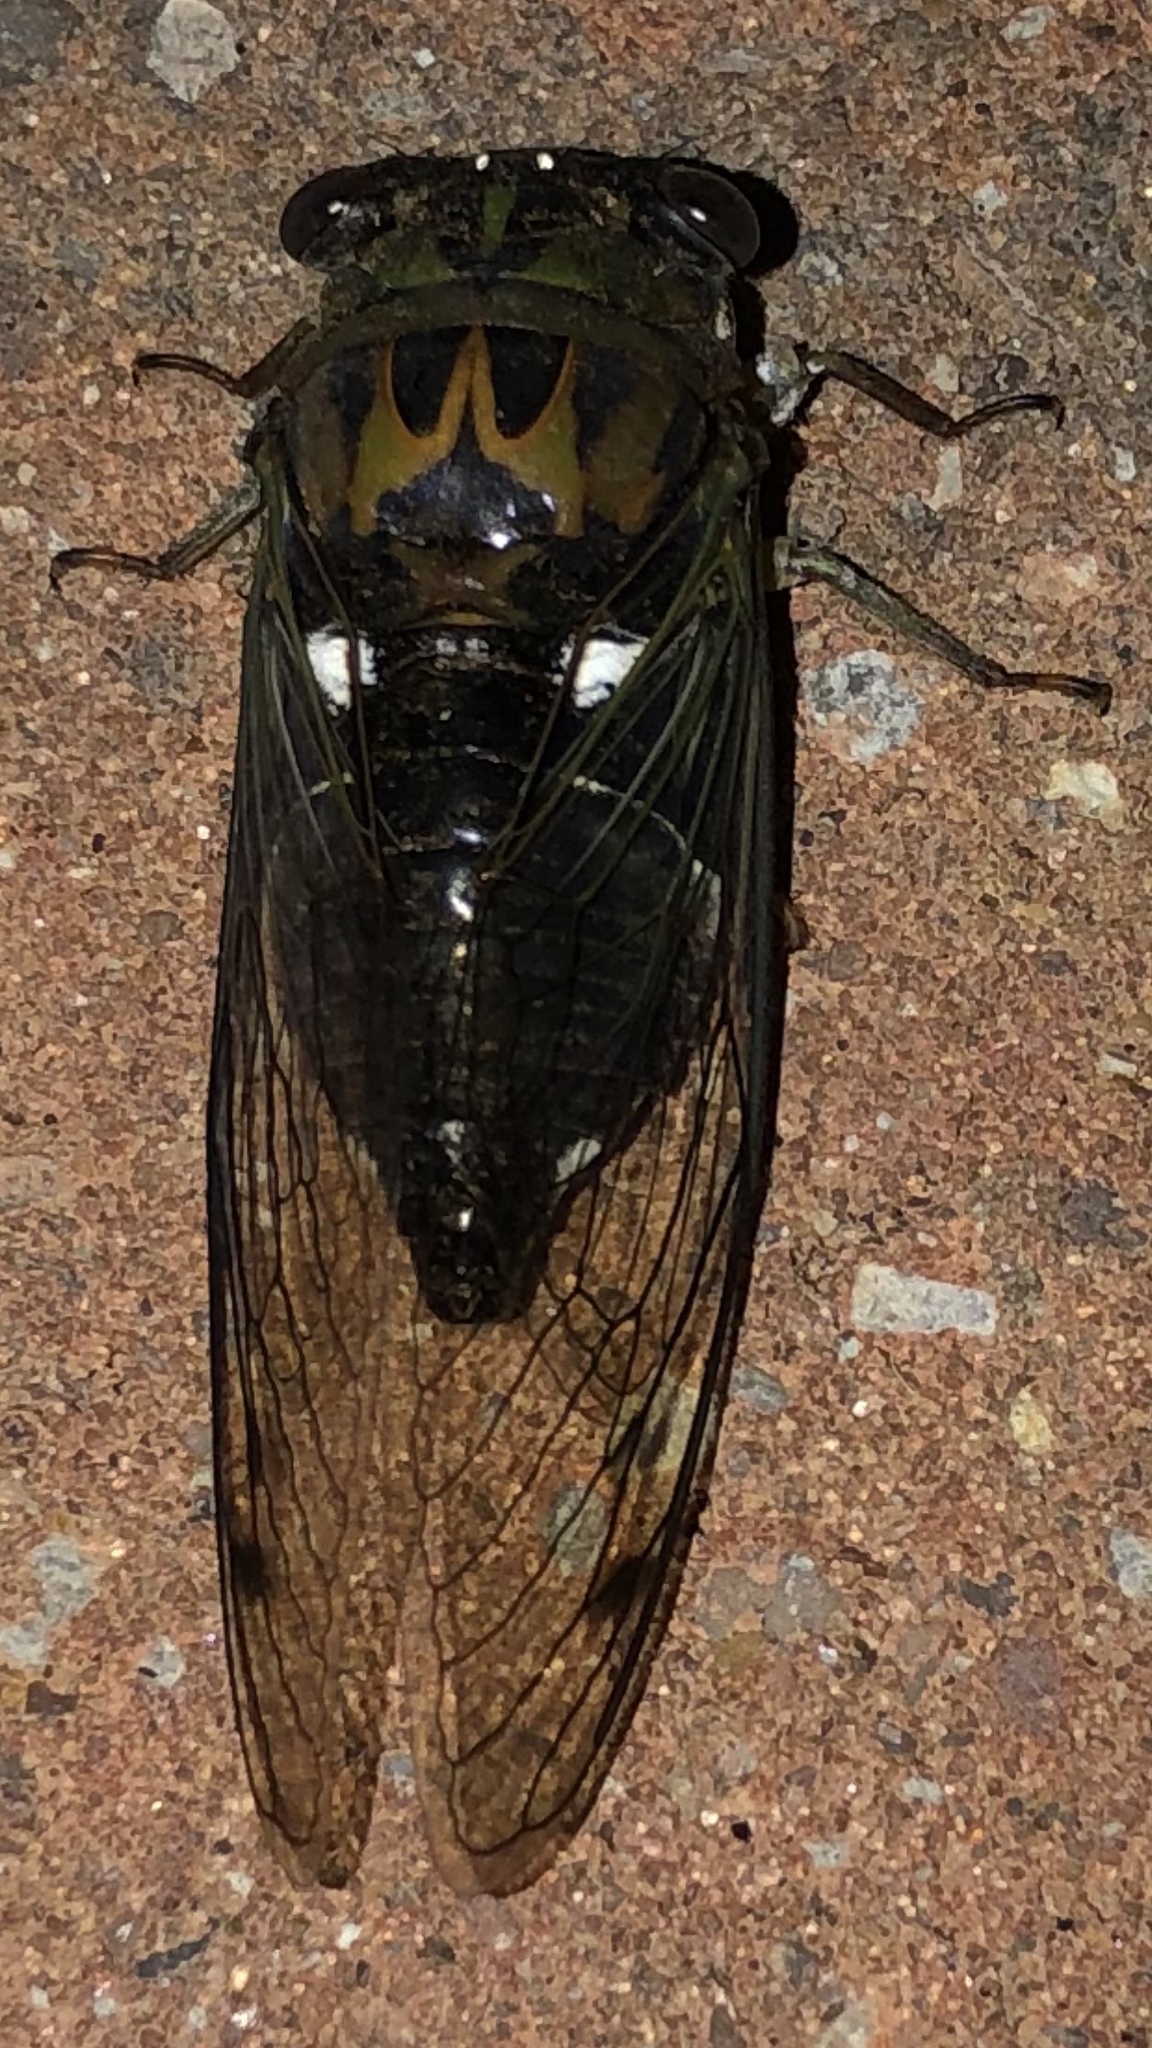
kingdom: Animalia
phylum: Arthropoda
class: Insecta
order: Hemiptera
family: Cicadidae
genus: Neotibicen
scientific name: Neotibicen pruinosus
